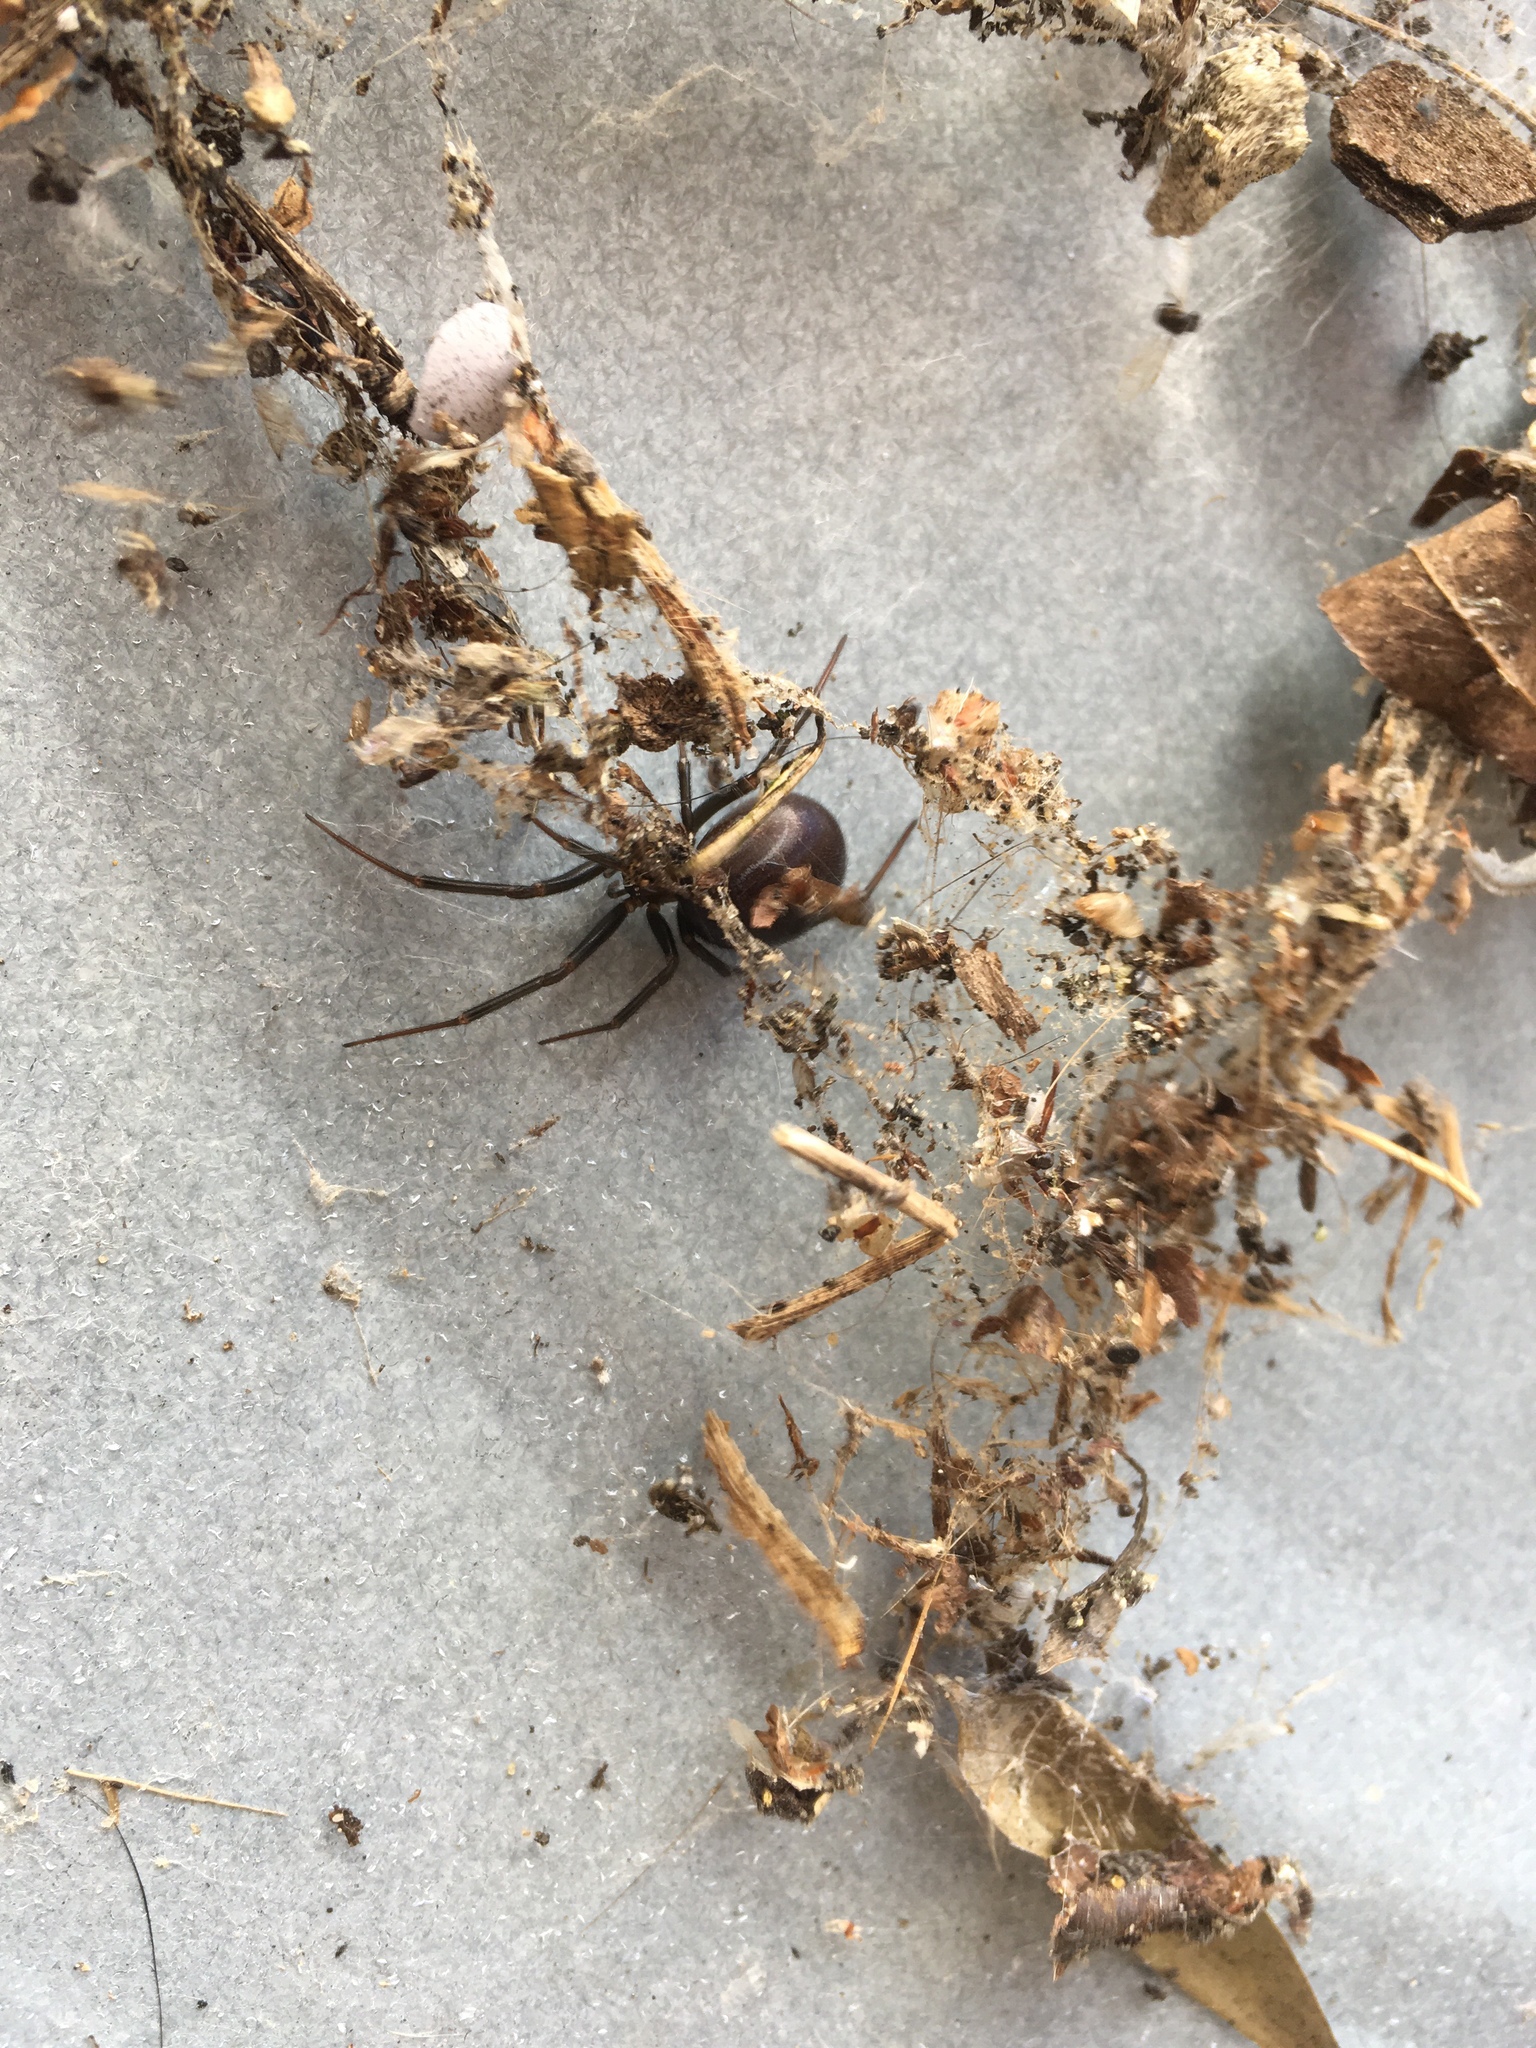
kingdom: Animalia
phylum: Arthropoda
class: Arachnida
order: Araneae
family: Theridiidae
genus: Steatoda
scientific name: Steatoda grossa
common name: False black widow
